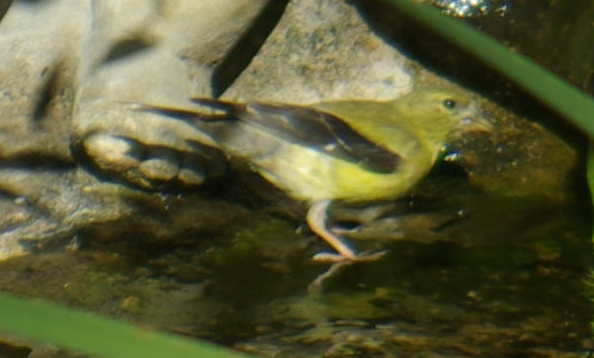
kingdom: Animalia
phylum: Chordata
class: Aves
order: Passeriformes
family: Fringillidae
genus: Spinus
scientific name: Spinus tristis
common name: American goldfinch
